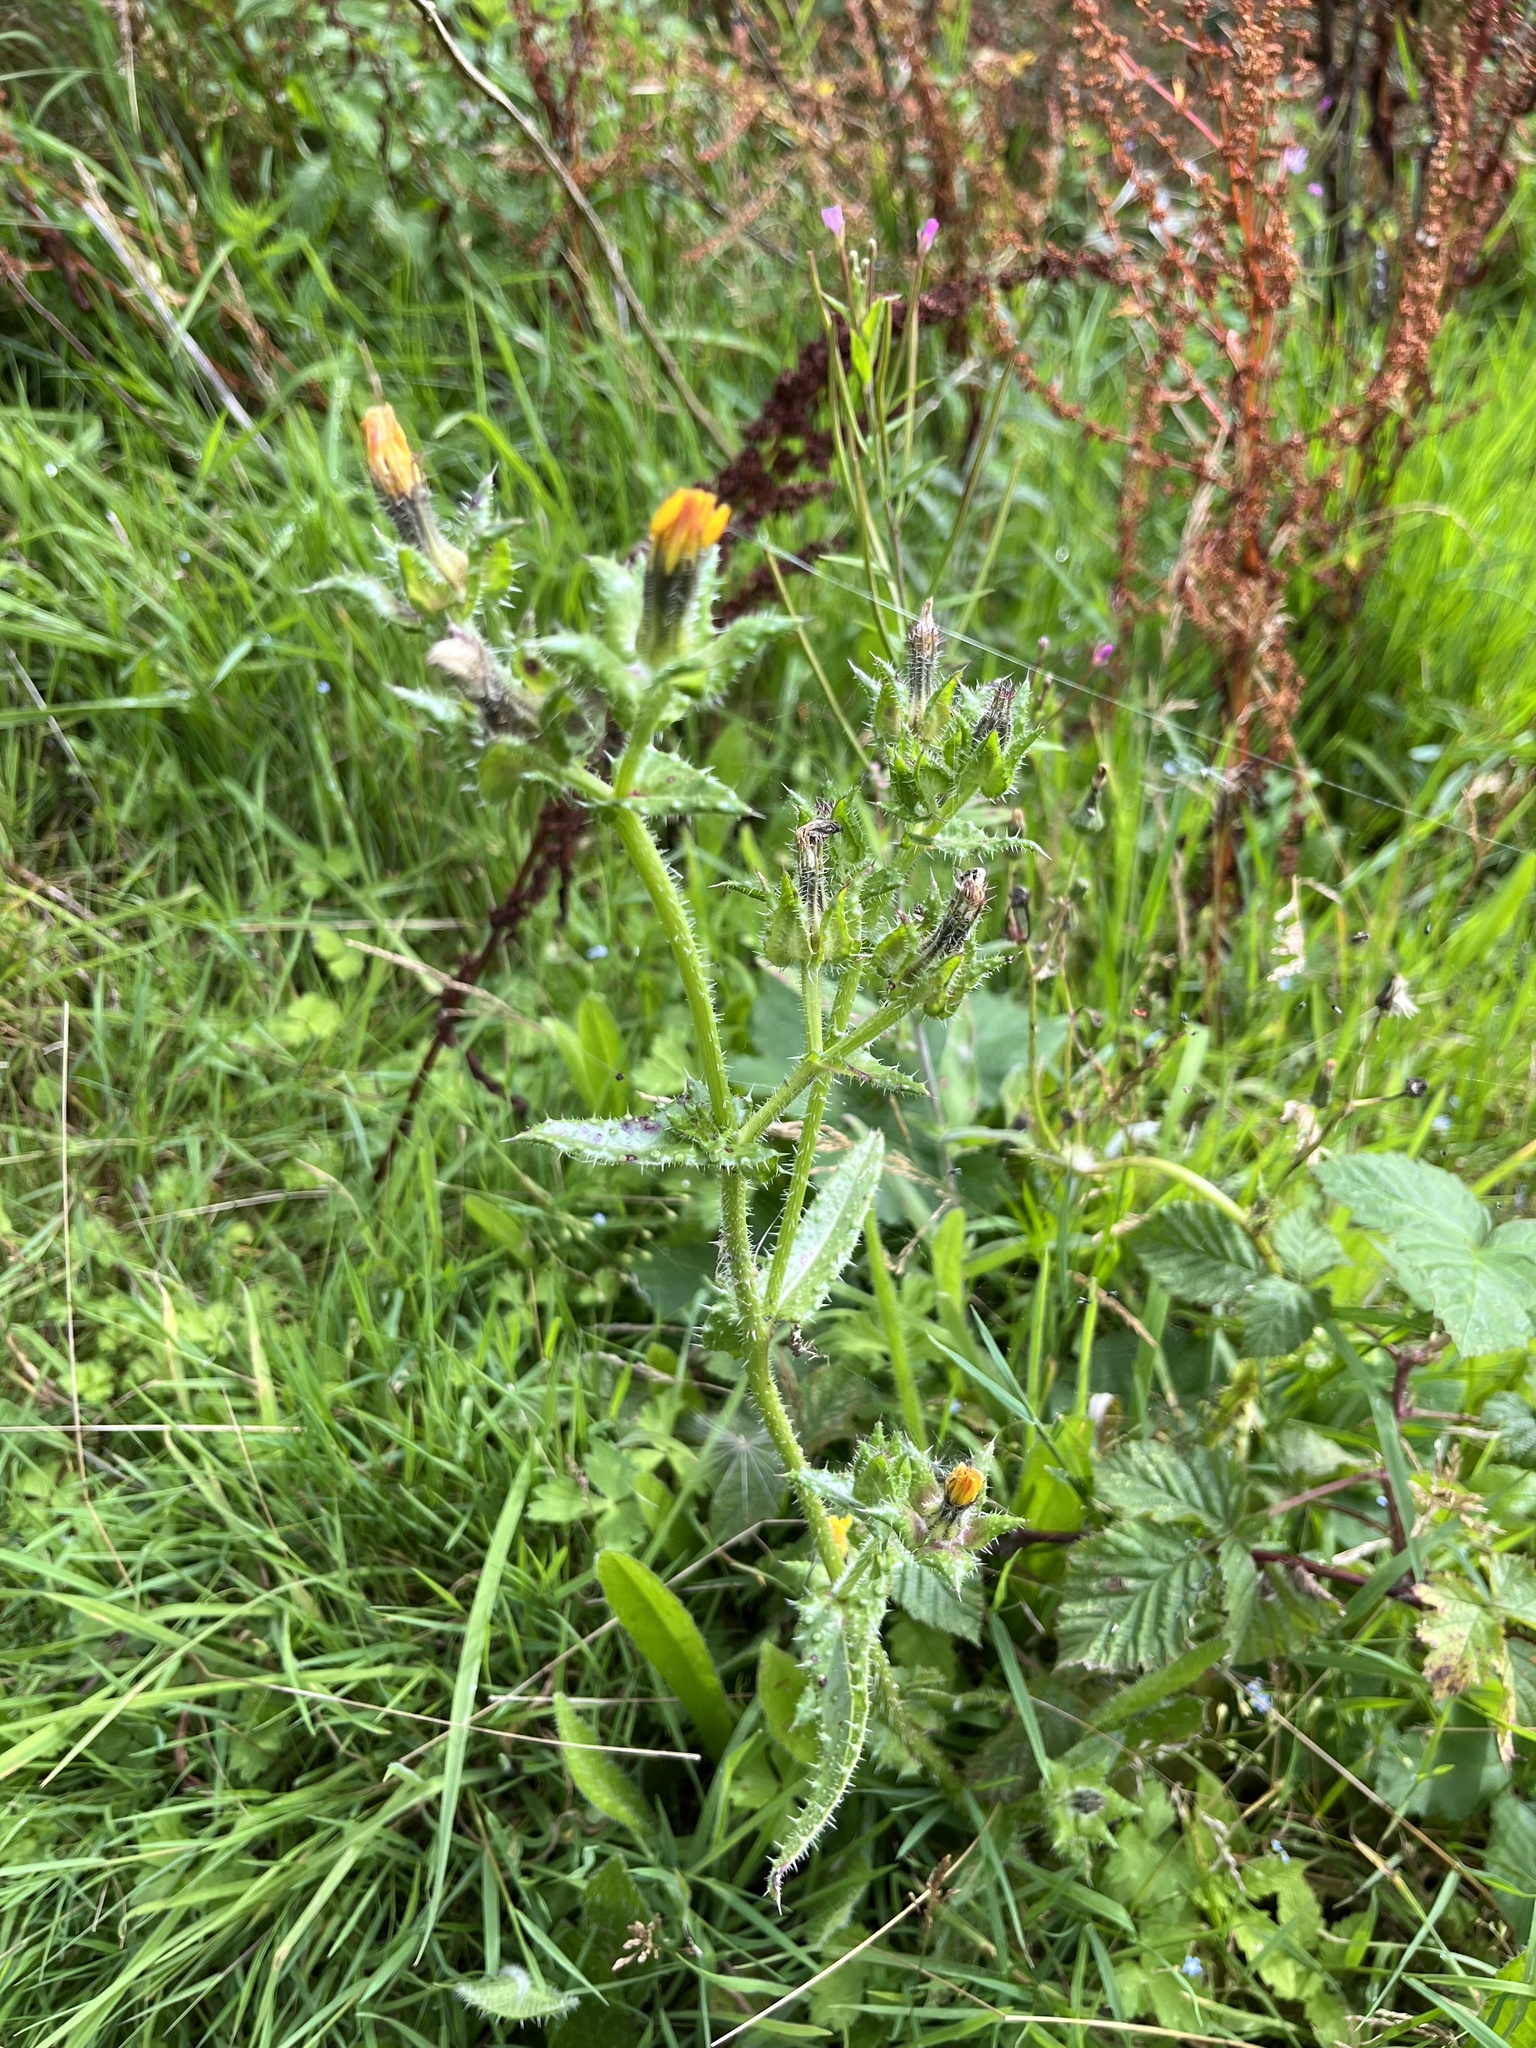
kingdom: Plantae
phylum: Tracheophyta
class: Magnoliopsida
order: Asterales
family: Asteraceae
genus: Helminthotheca
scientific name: Helminthotheca echioides
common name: Ox-tongue
